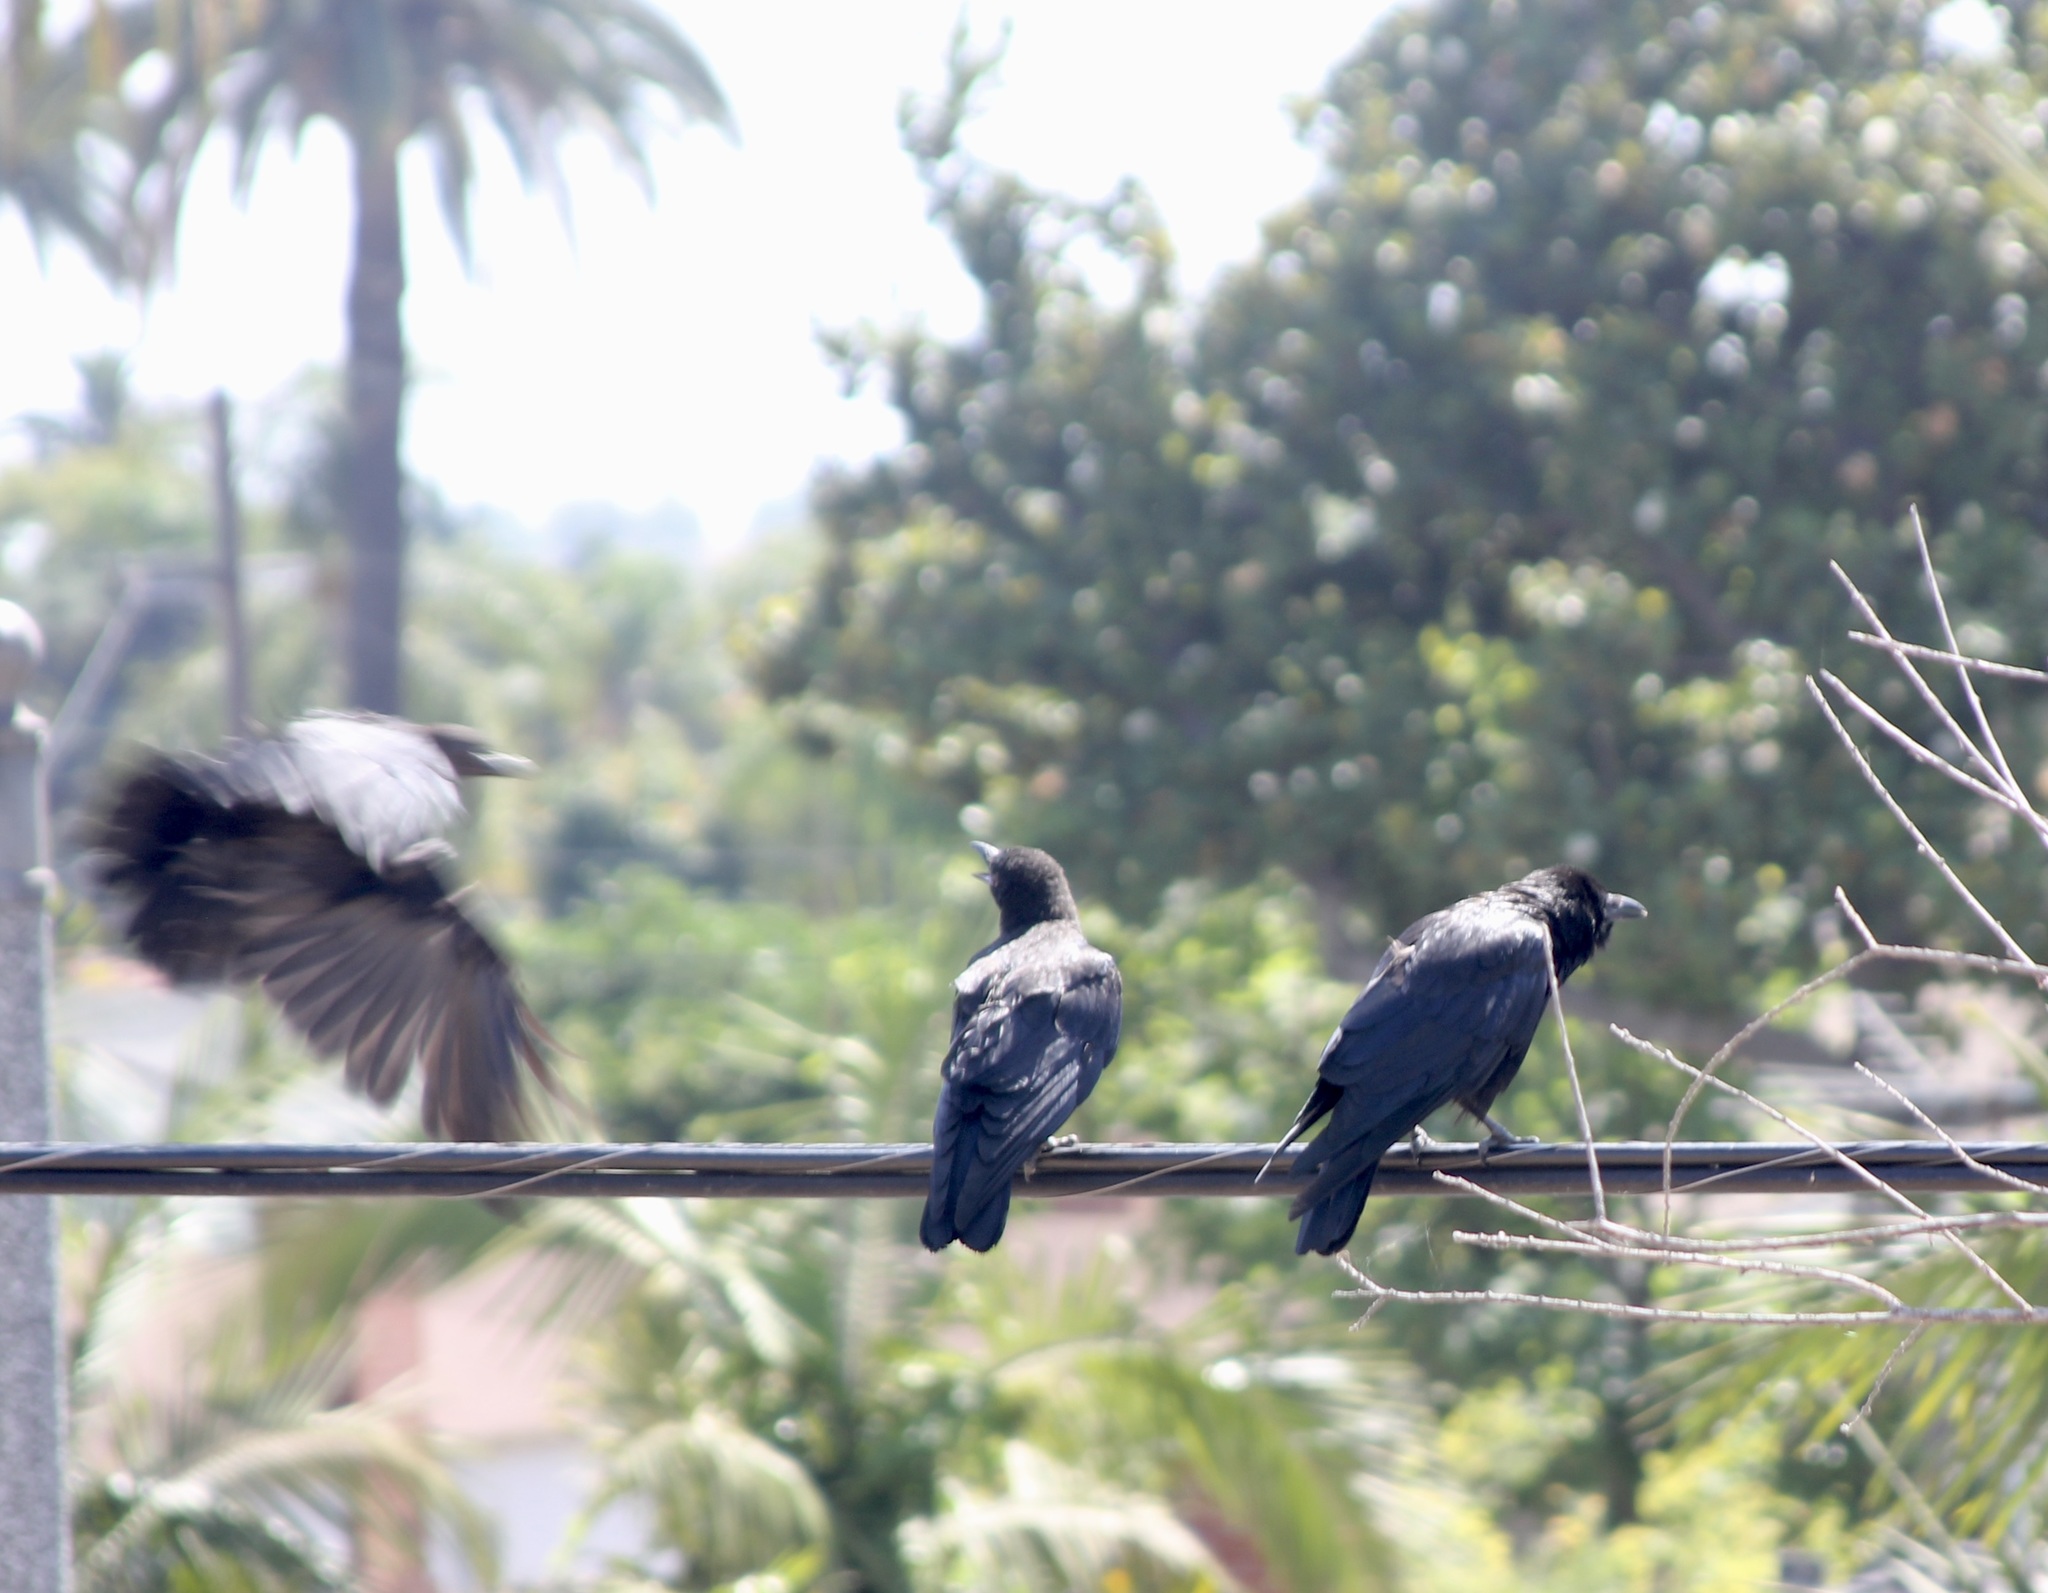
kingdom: Animalia
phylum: Chordata
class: Aves
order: Passeriformes
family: Corvidae
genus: Corvus
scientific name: Corvus brachyrhynchos
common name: American crow
